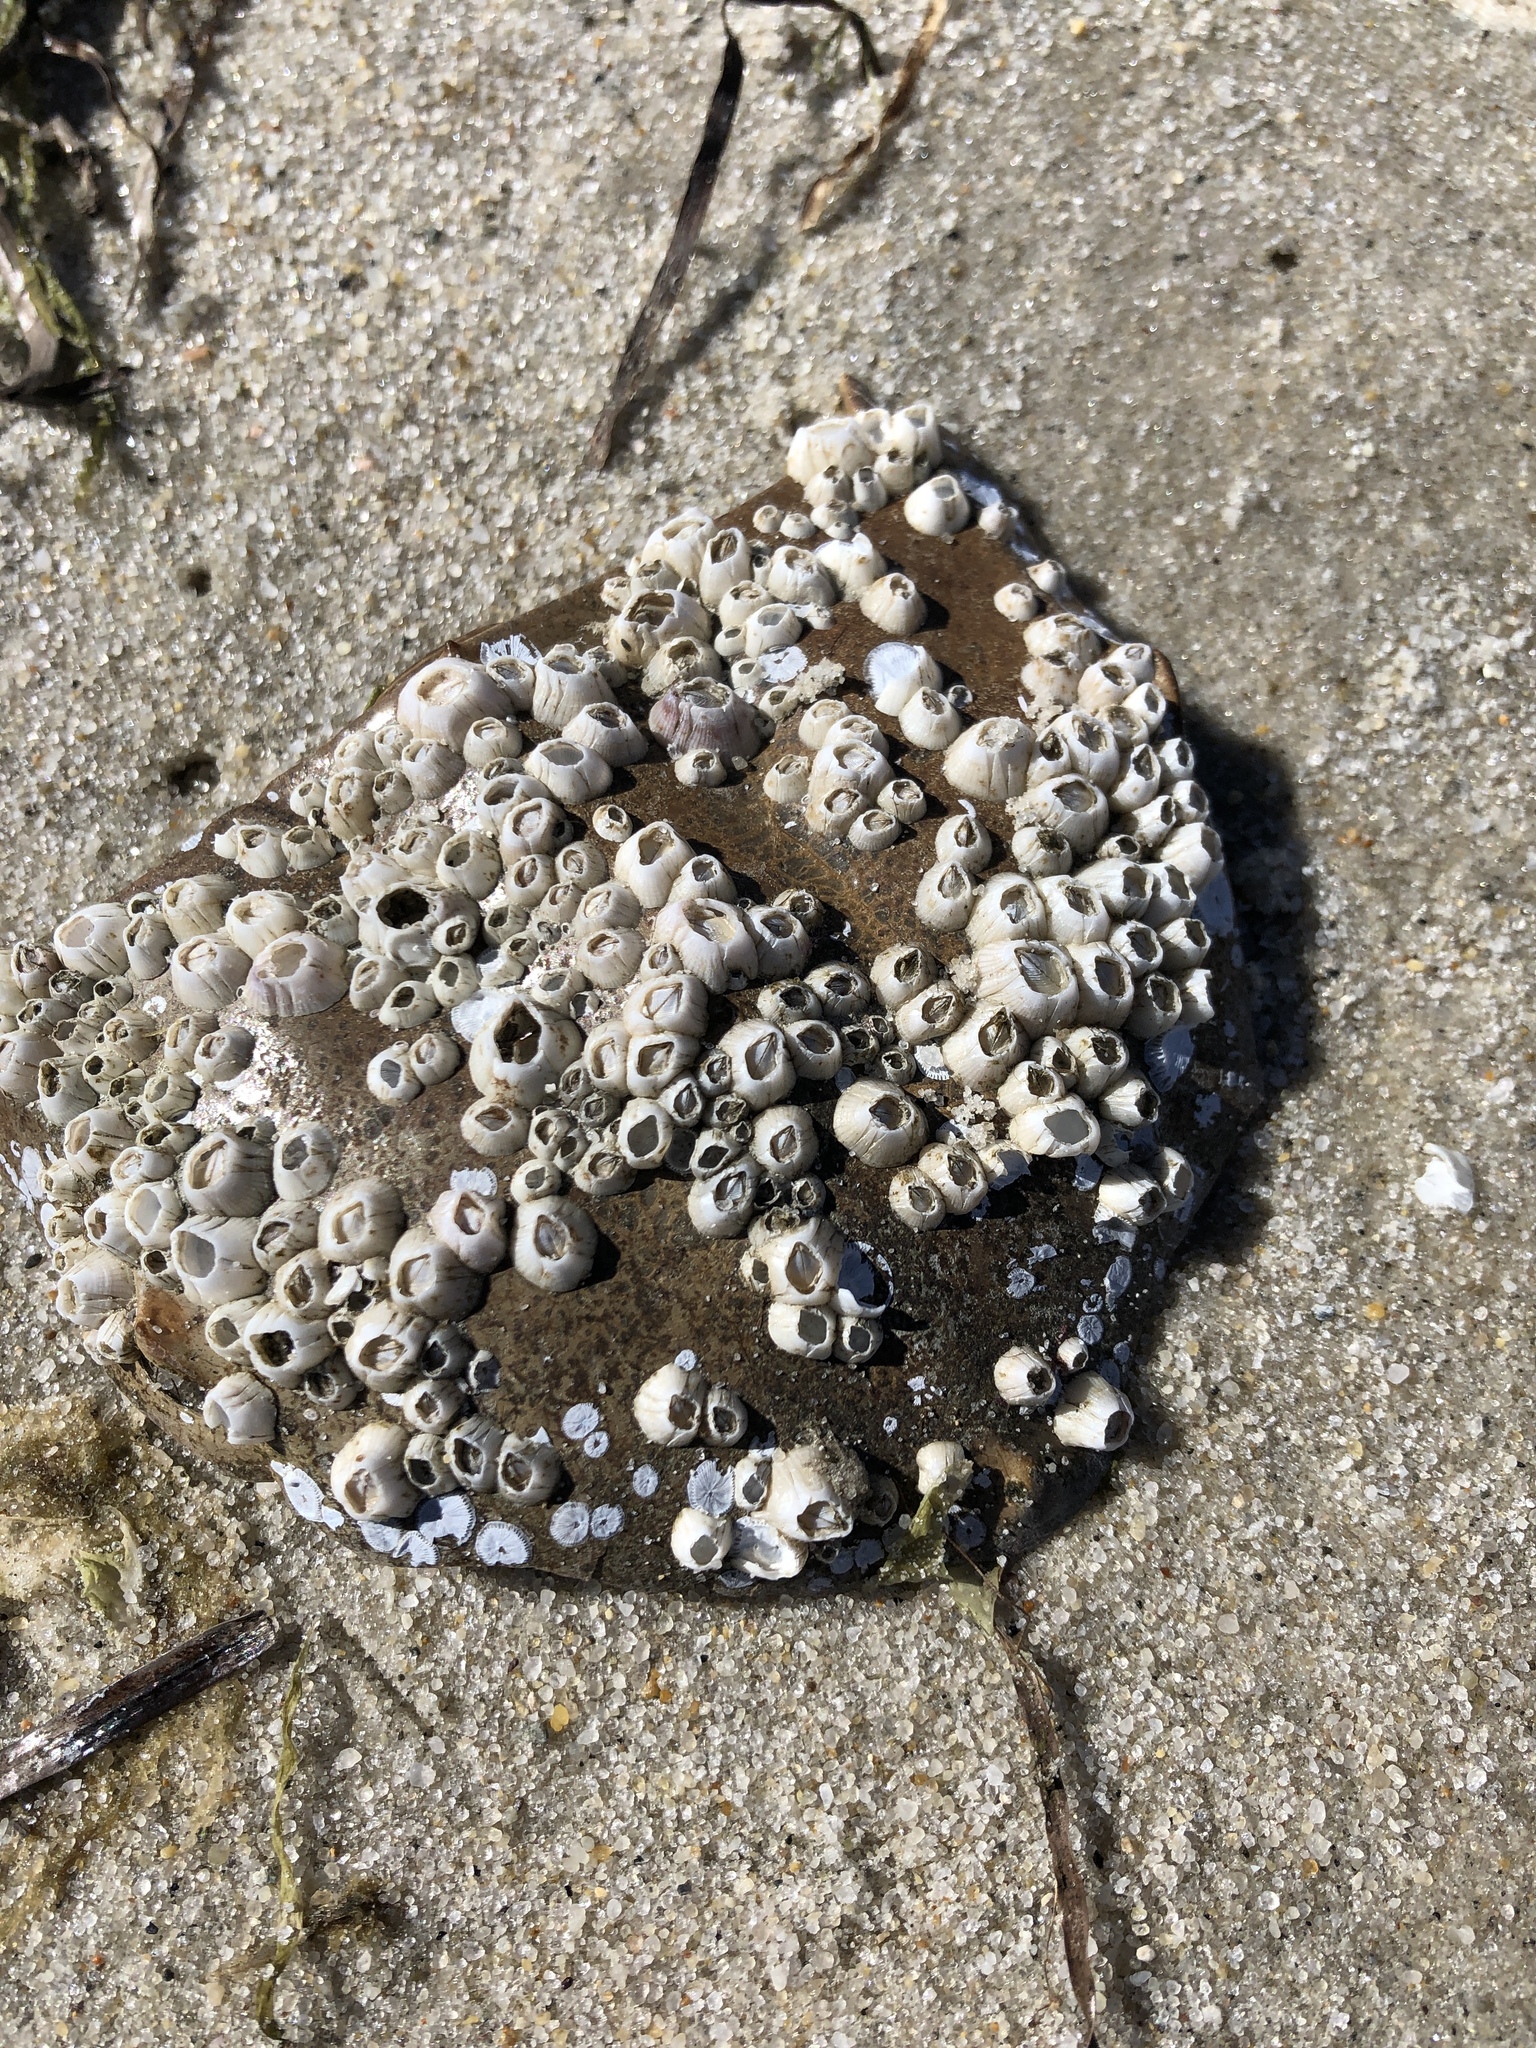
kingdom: Animalia
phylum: Arthropoda
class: Maxillopoda
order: Sessilia
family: Balanidae
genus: Amphibalanus
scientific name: Amphibalanus venustus
